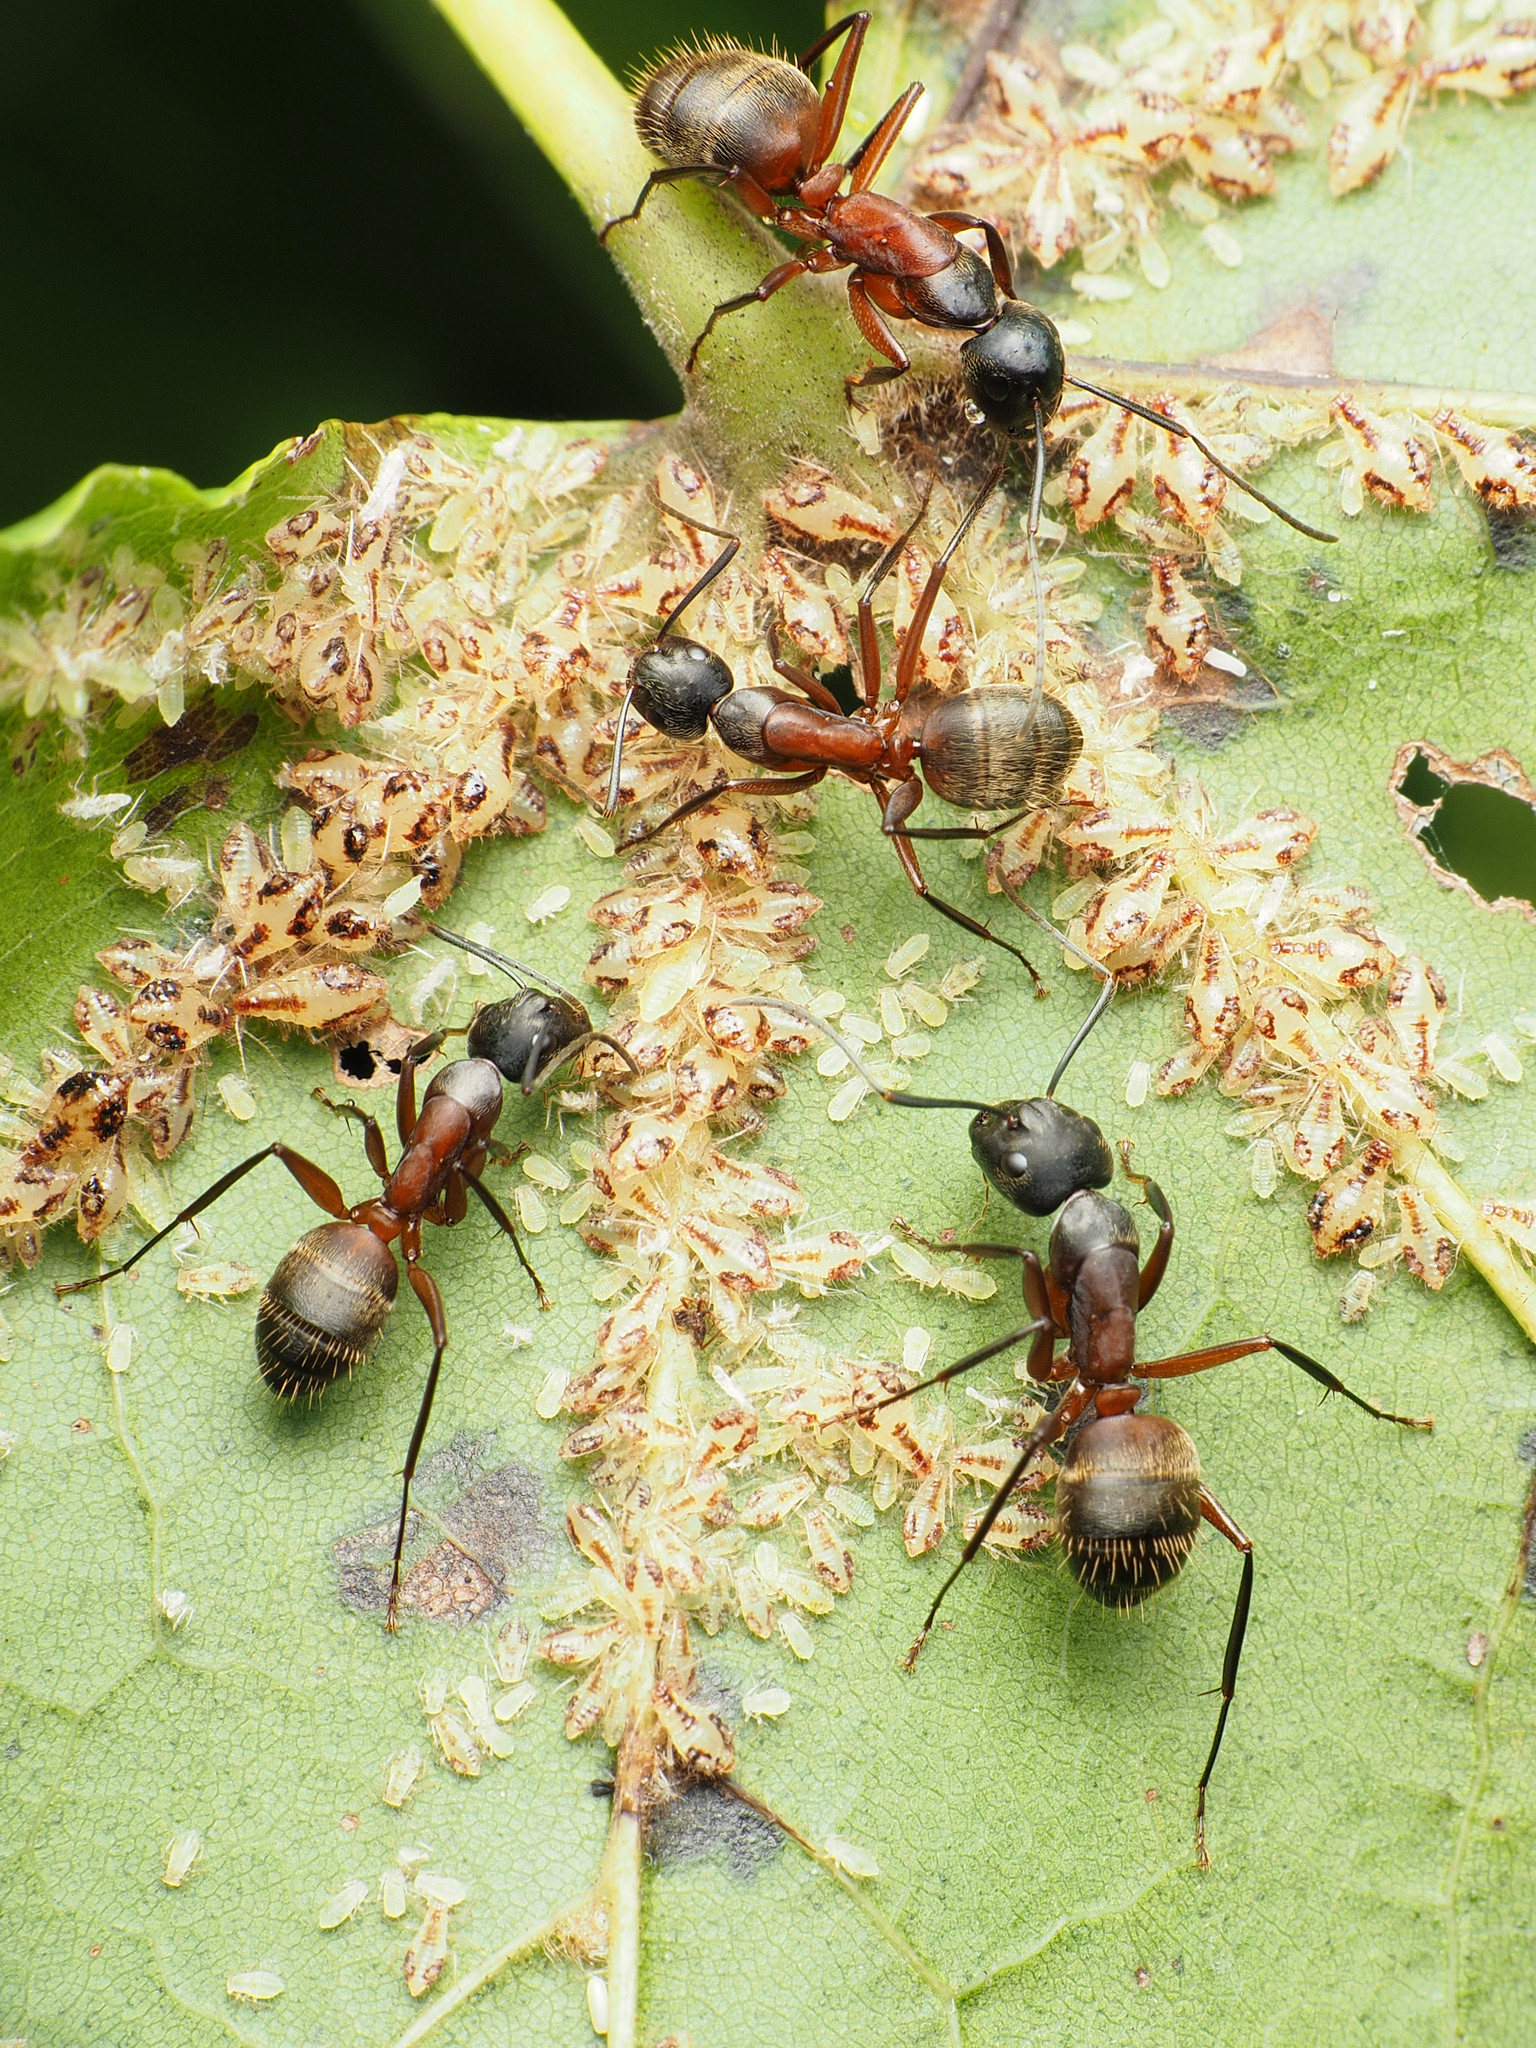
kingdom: Animalia
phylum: Arthropoda
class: Insecta
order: Hymenoptera
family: Formicidae
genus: Camponotus
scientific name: Camponotus chromaiodes
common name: Red carpenter ant
